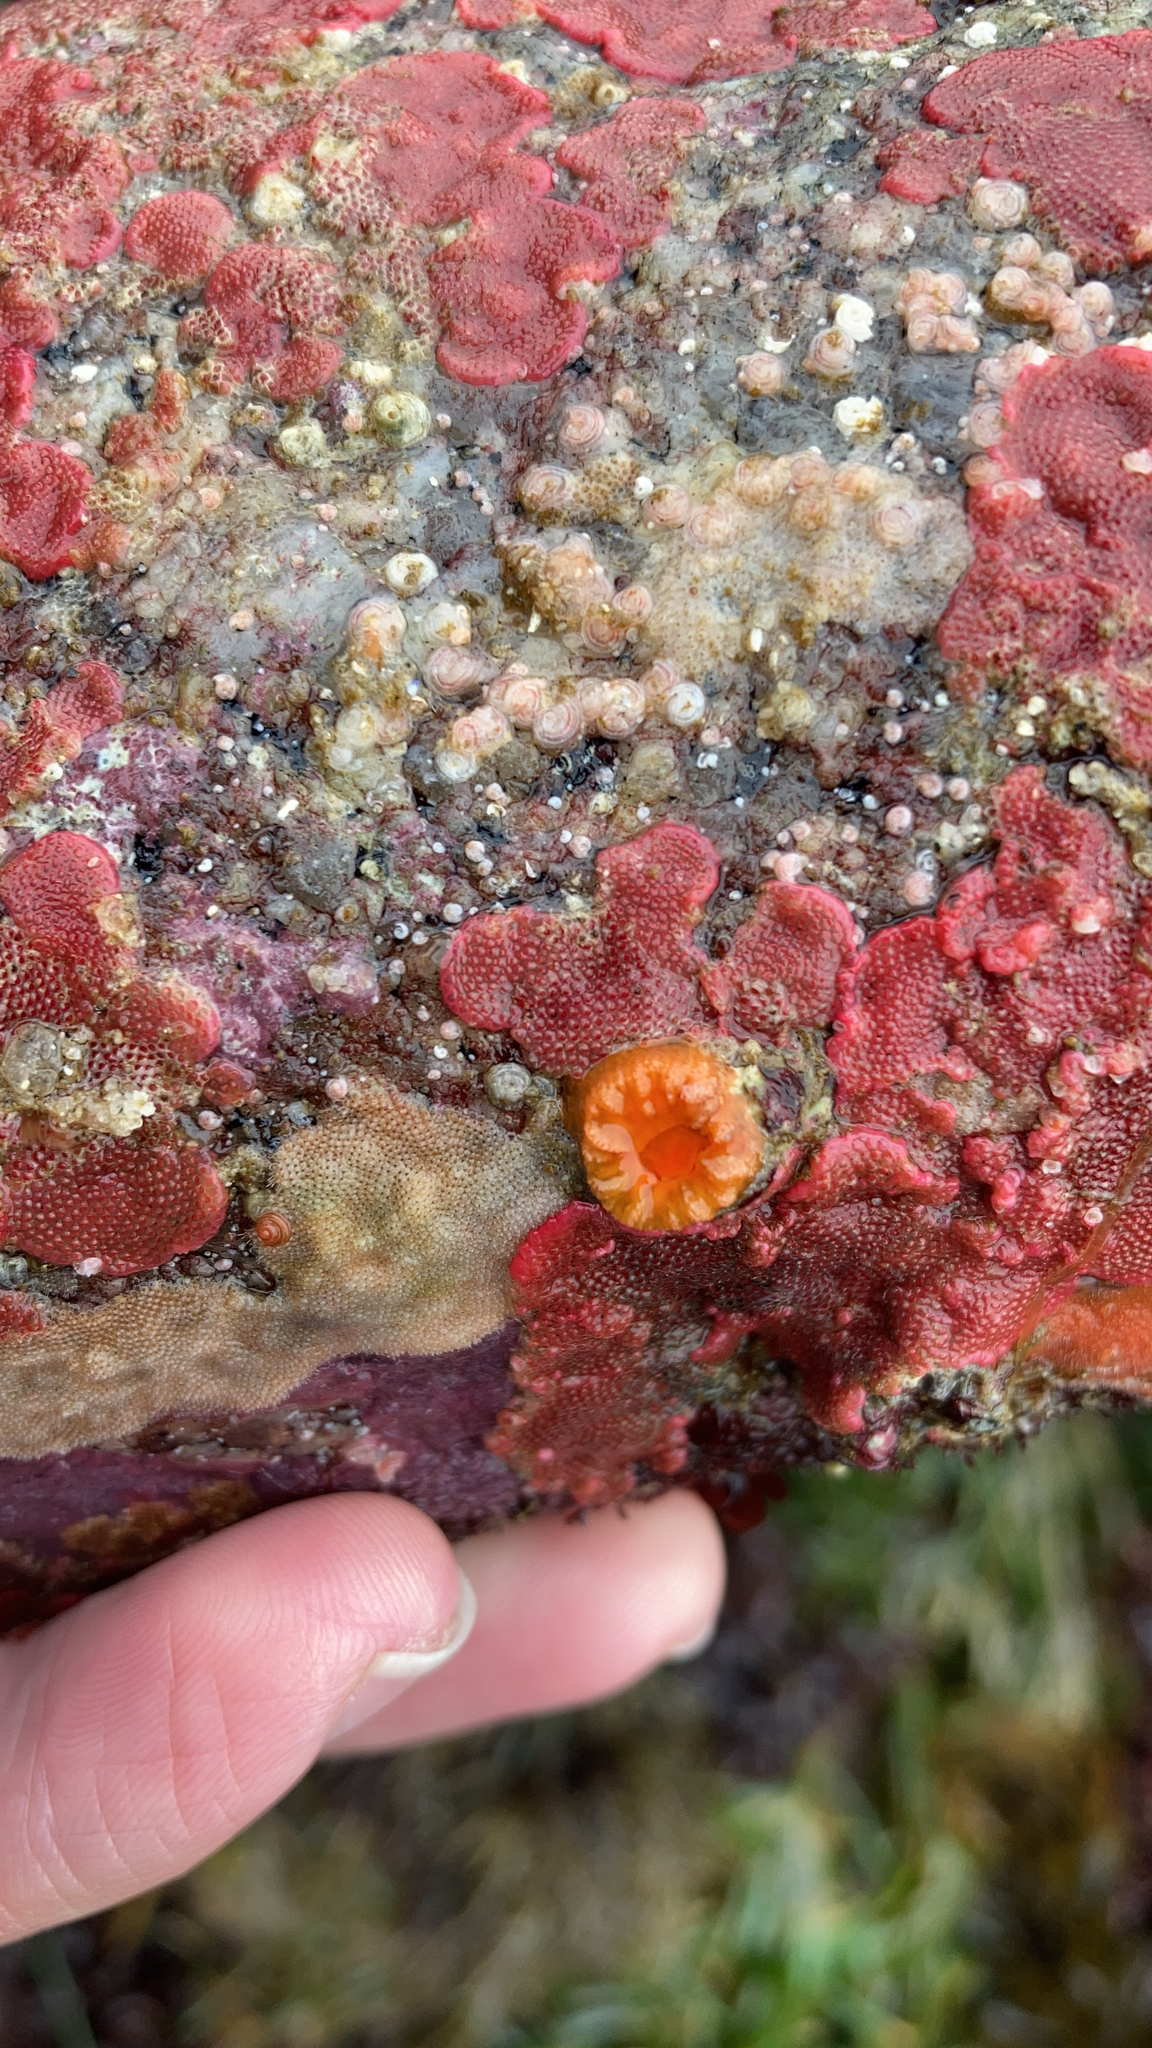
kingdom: Animalia
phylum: Bryozoa
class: Gymnolaemata
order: Cheilostomatida
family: Eurystomellidae
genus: Integripelta
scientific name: Integripelta bilabiata
